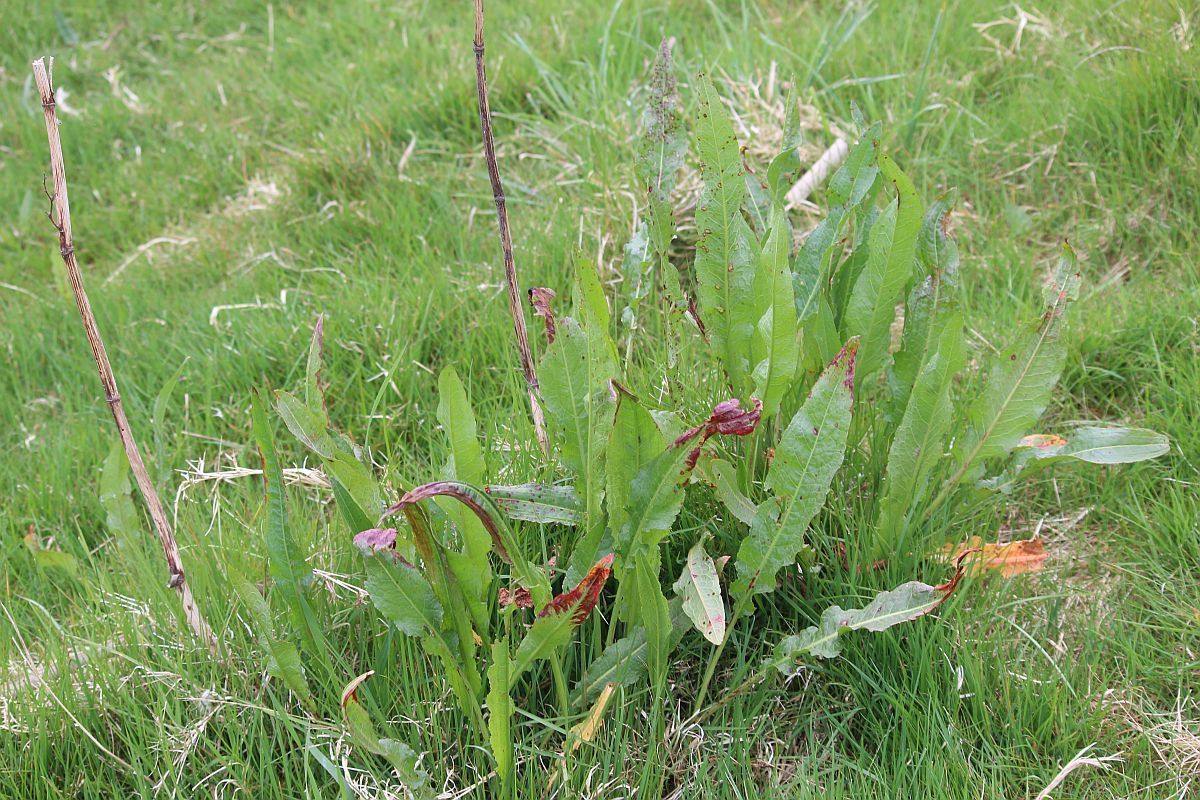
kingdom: Plantae
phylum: Tracheophyta
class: Magnoliopsida
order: Caryophyllales
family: Polygonaceae
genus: Rumex
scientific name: Rumex crispus
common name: Curled dock
